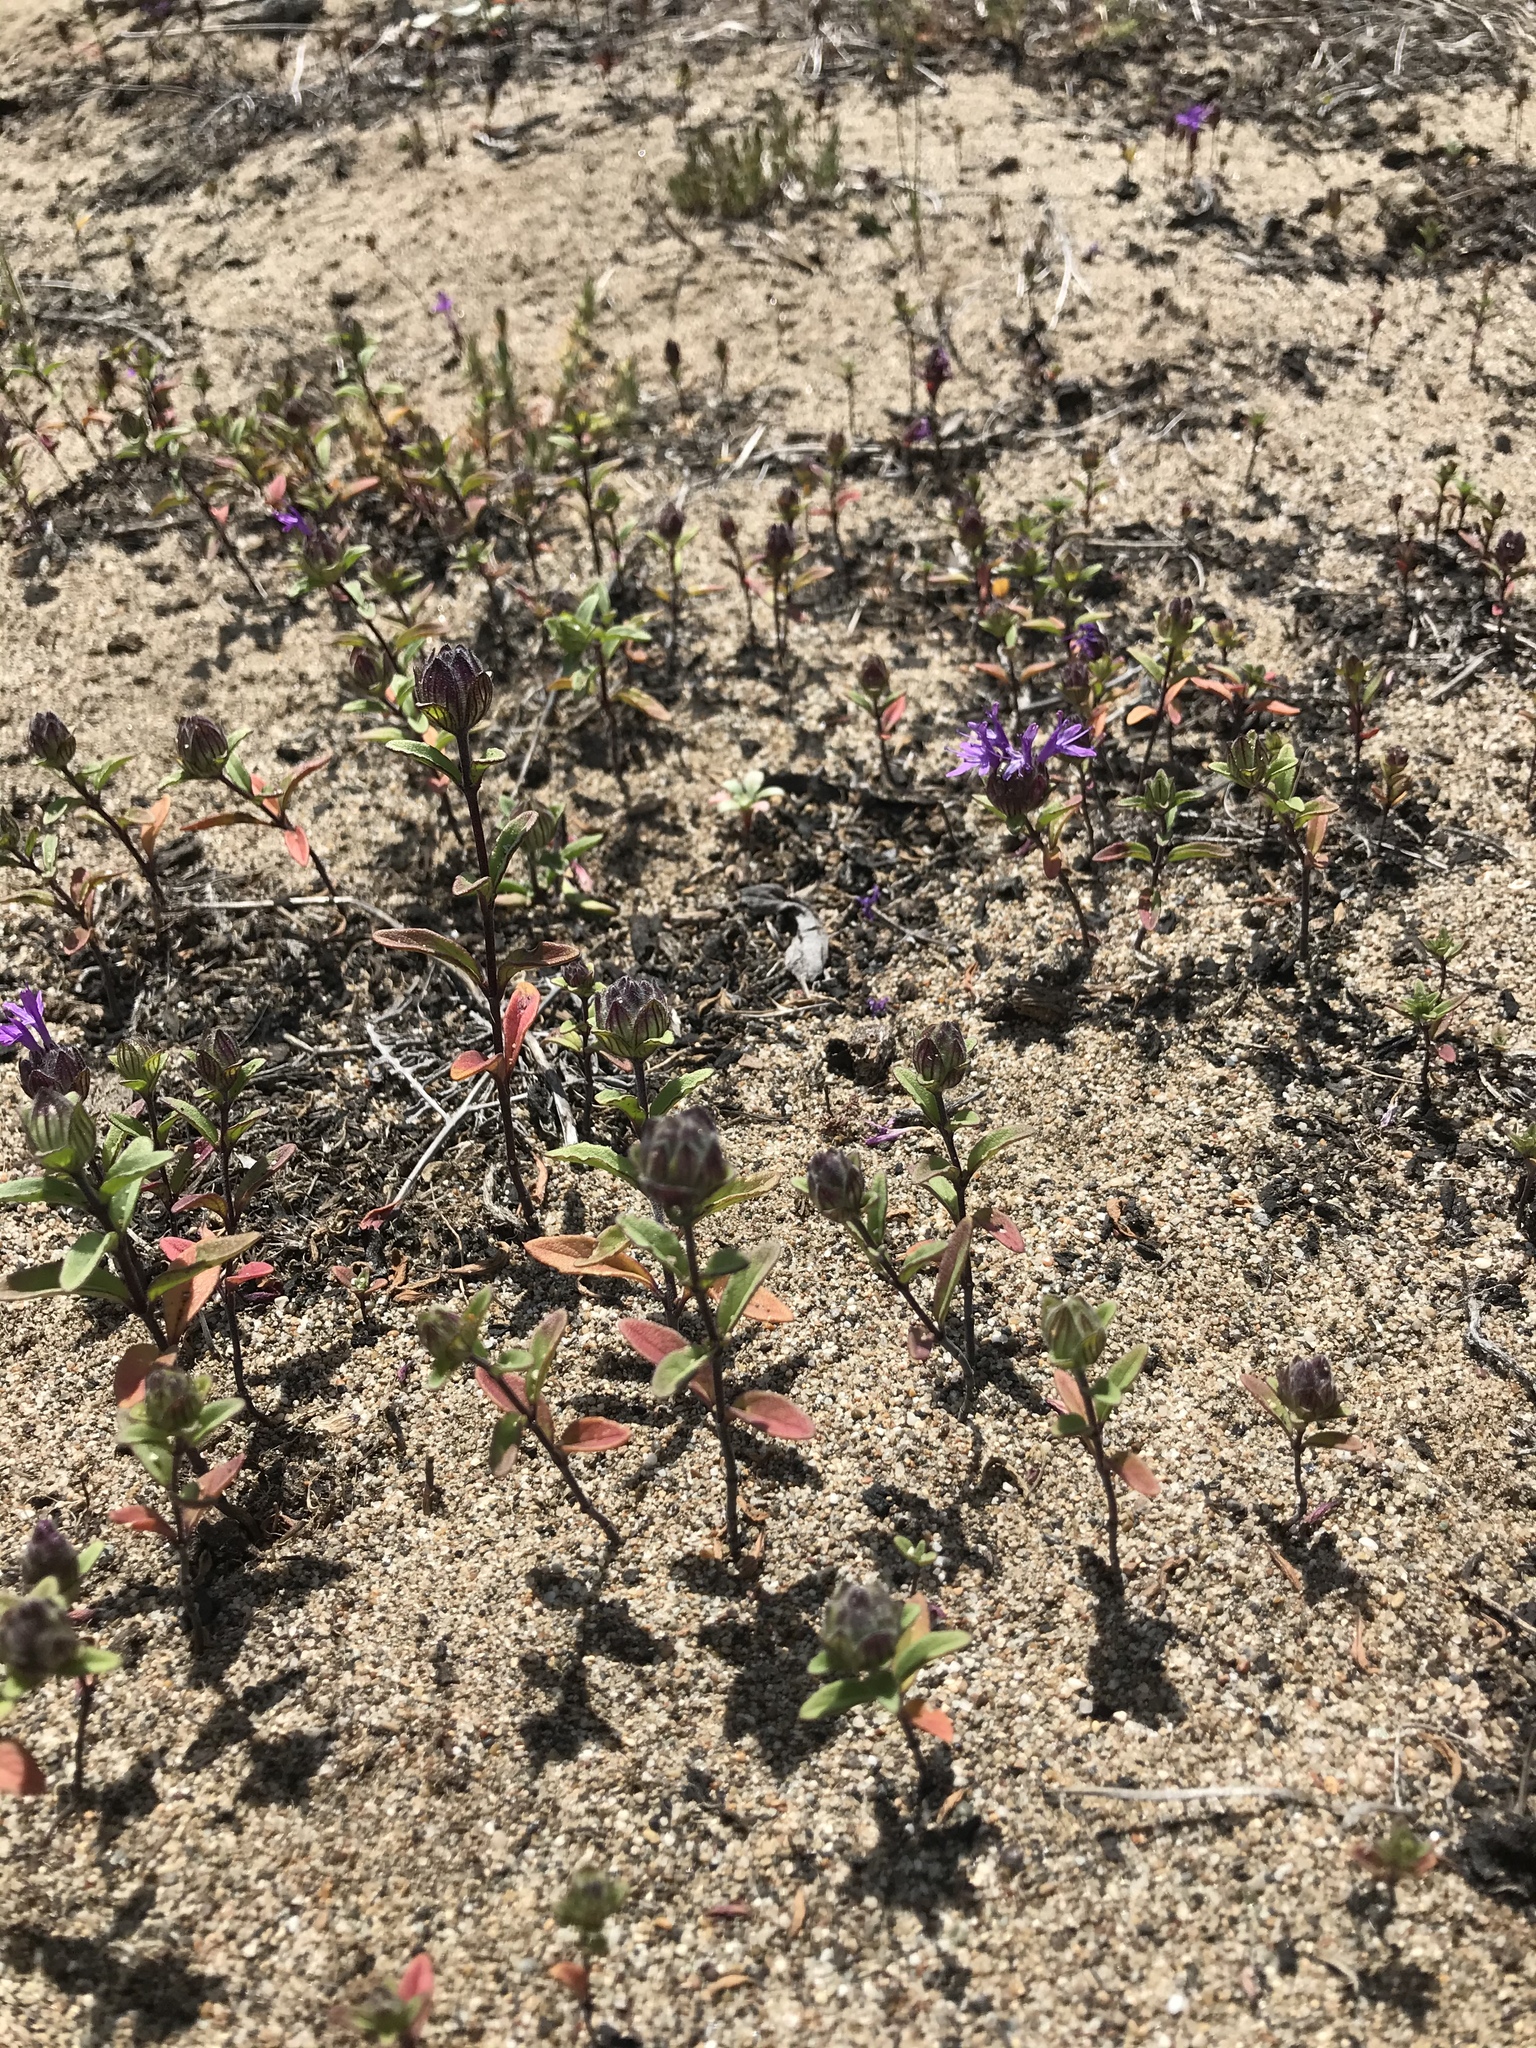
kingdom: Plantae
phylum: Tracheophyta
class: Magnoliopsida
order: Lamiales
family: Lamiaceae
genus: Monardella
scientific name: Monardella sinuata
